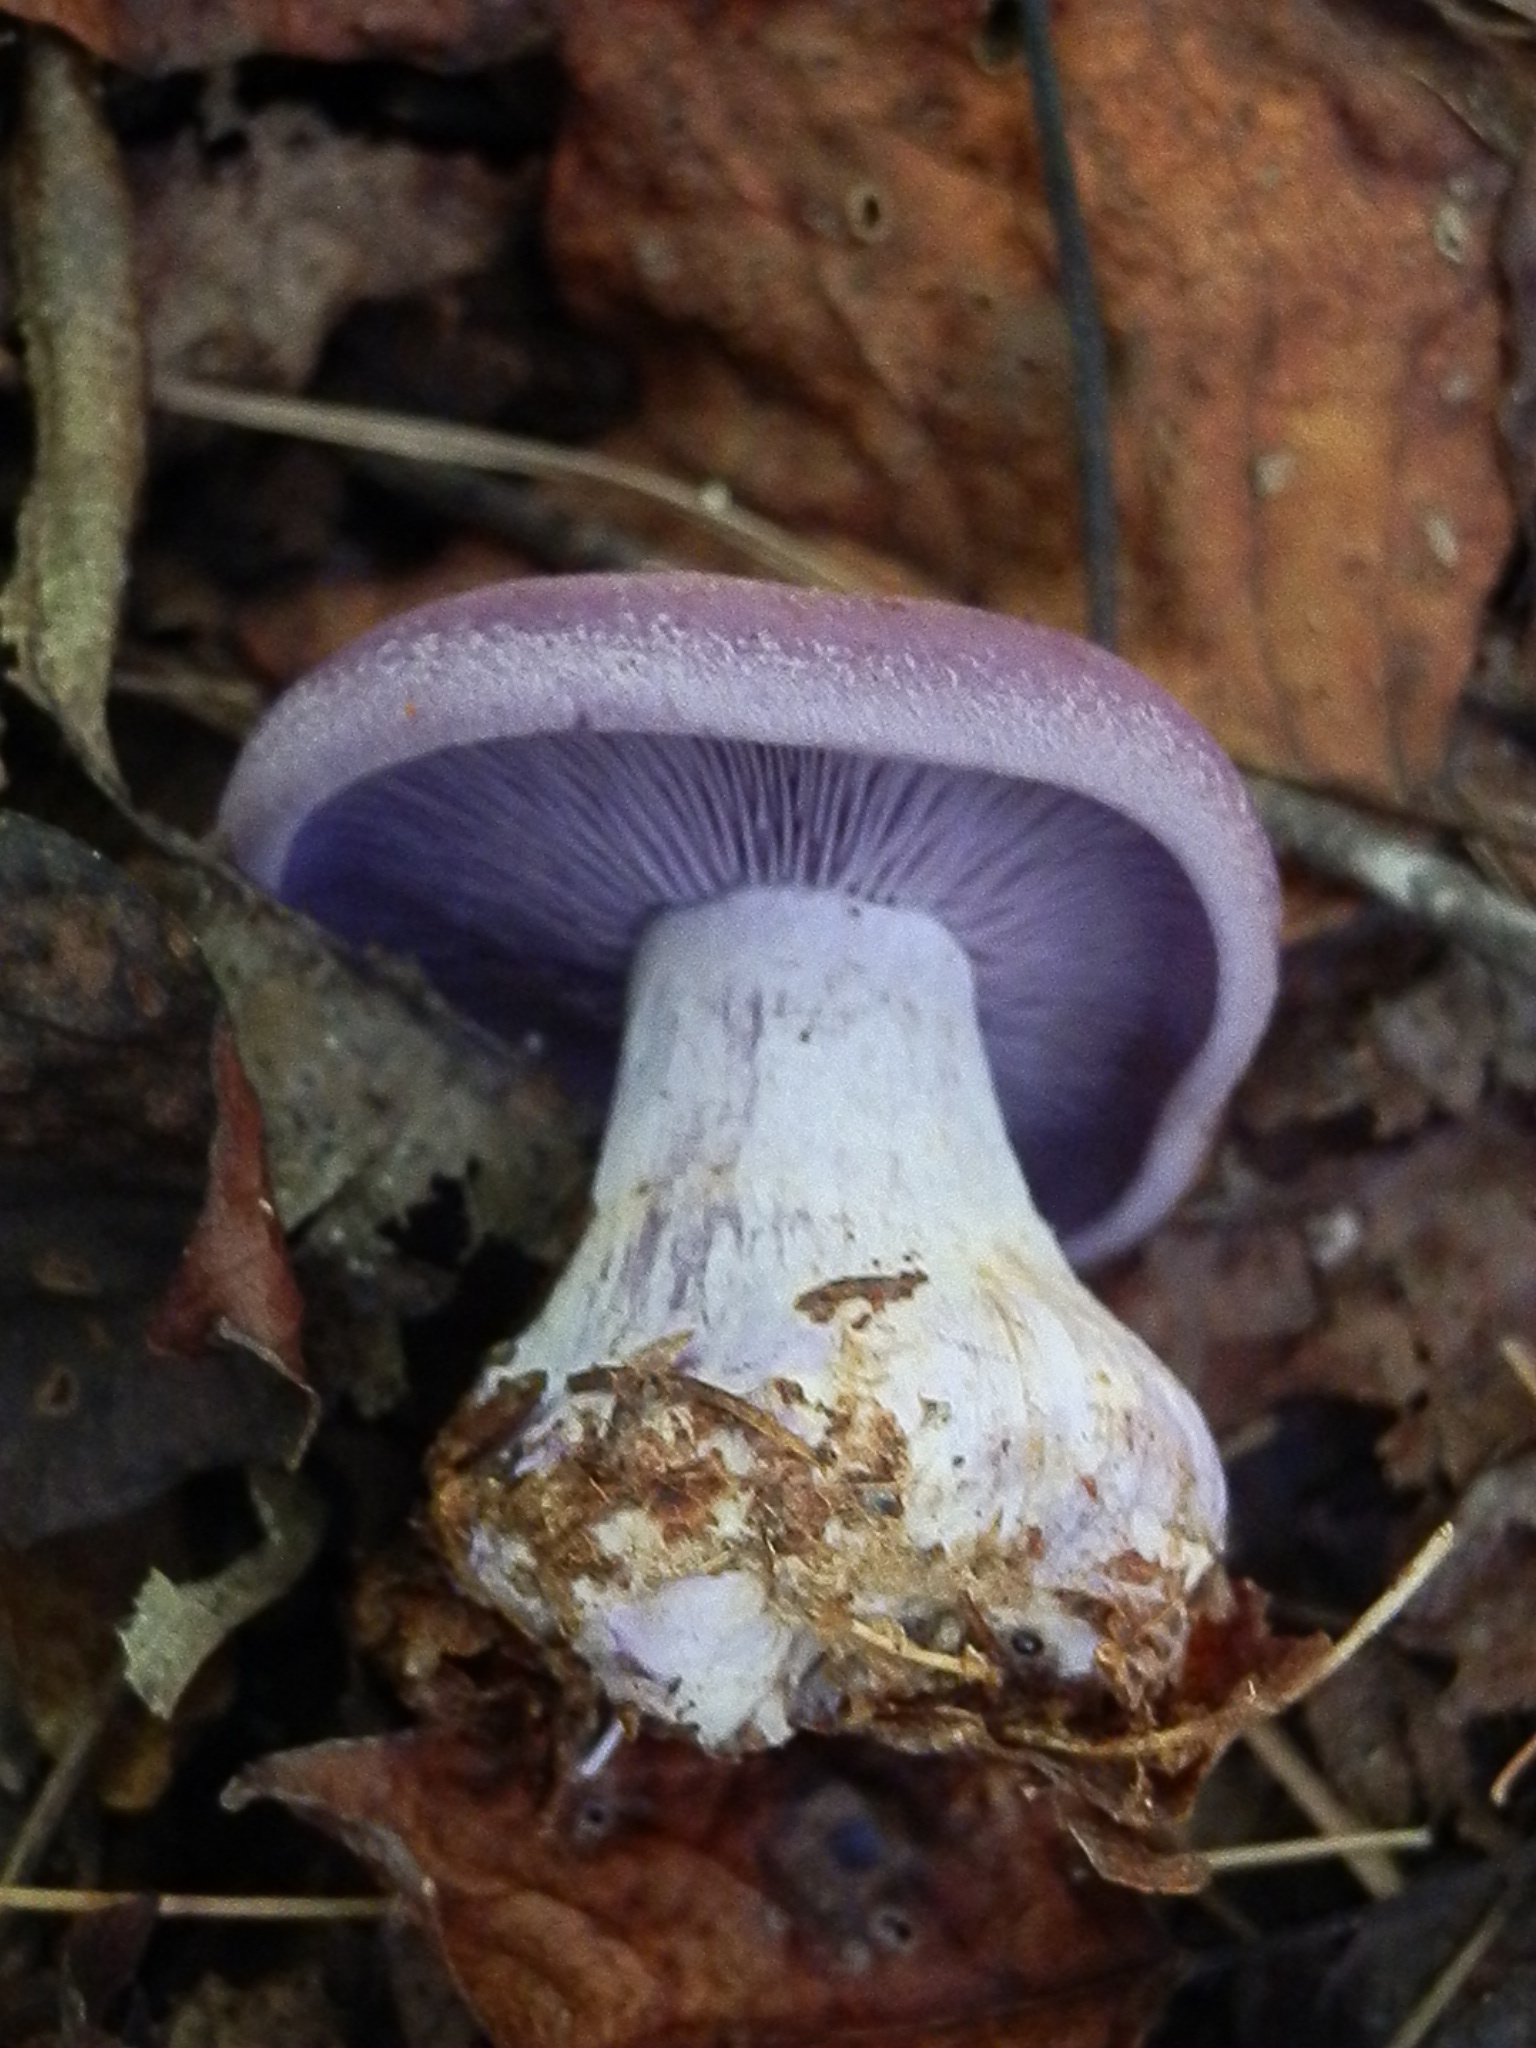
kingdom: Fungi
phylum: Basidiomycota
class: Agaricomycetes
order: Agaricales
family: Tricholomataceae
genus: Collybia
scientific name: Collybia
